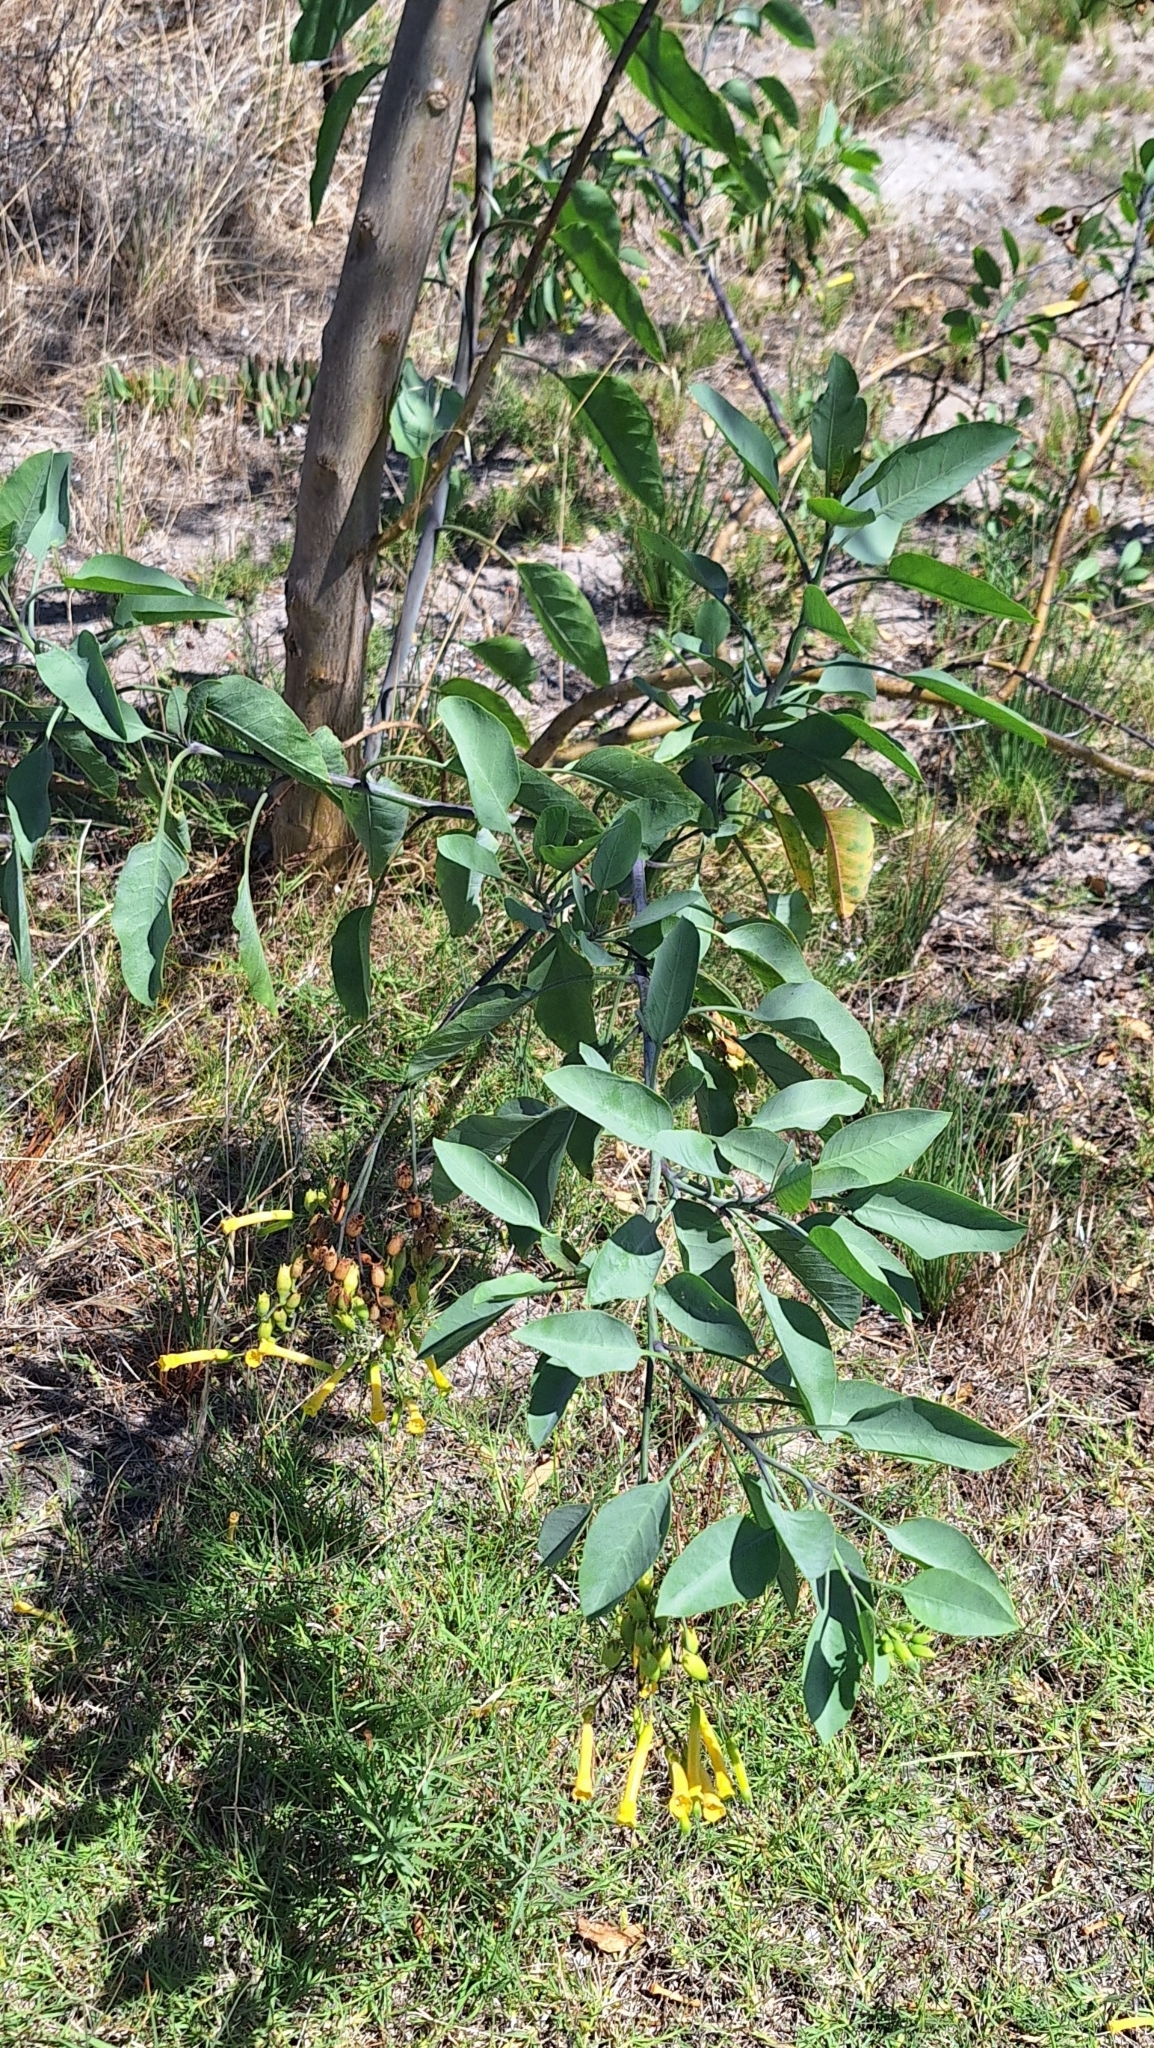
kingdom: Plantae
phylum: Tracheophyta
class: Magnoliopsida
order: Solanales
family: Solanaceae
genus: Nicotiana
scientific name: Nicotiana glauca
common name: Tree tobacco
